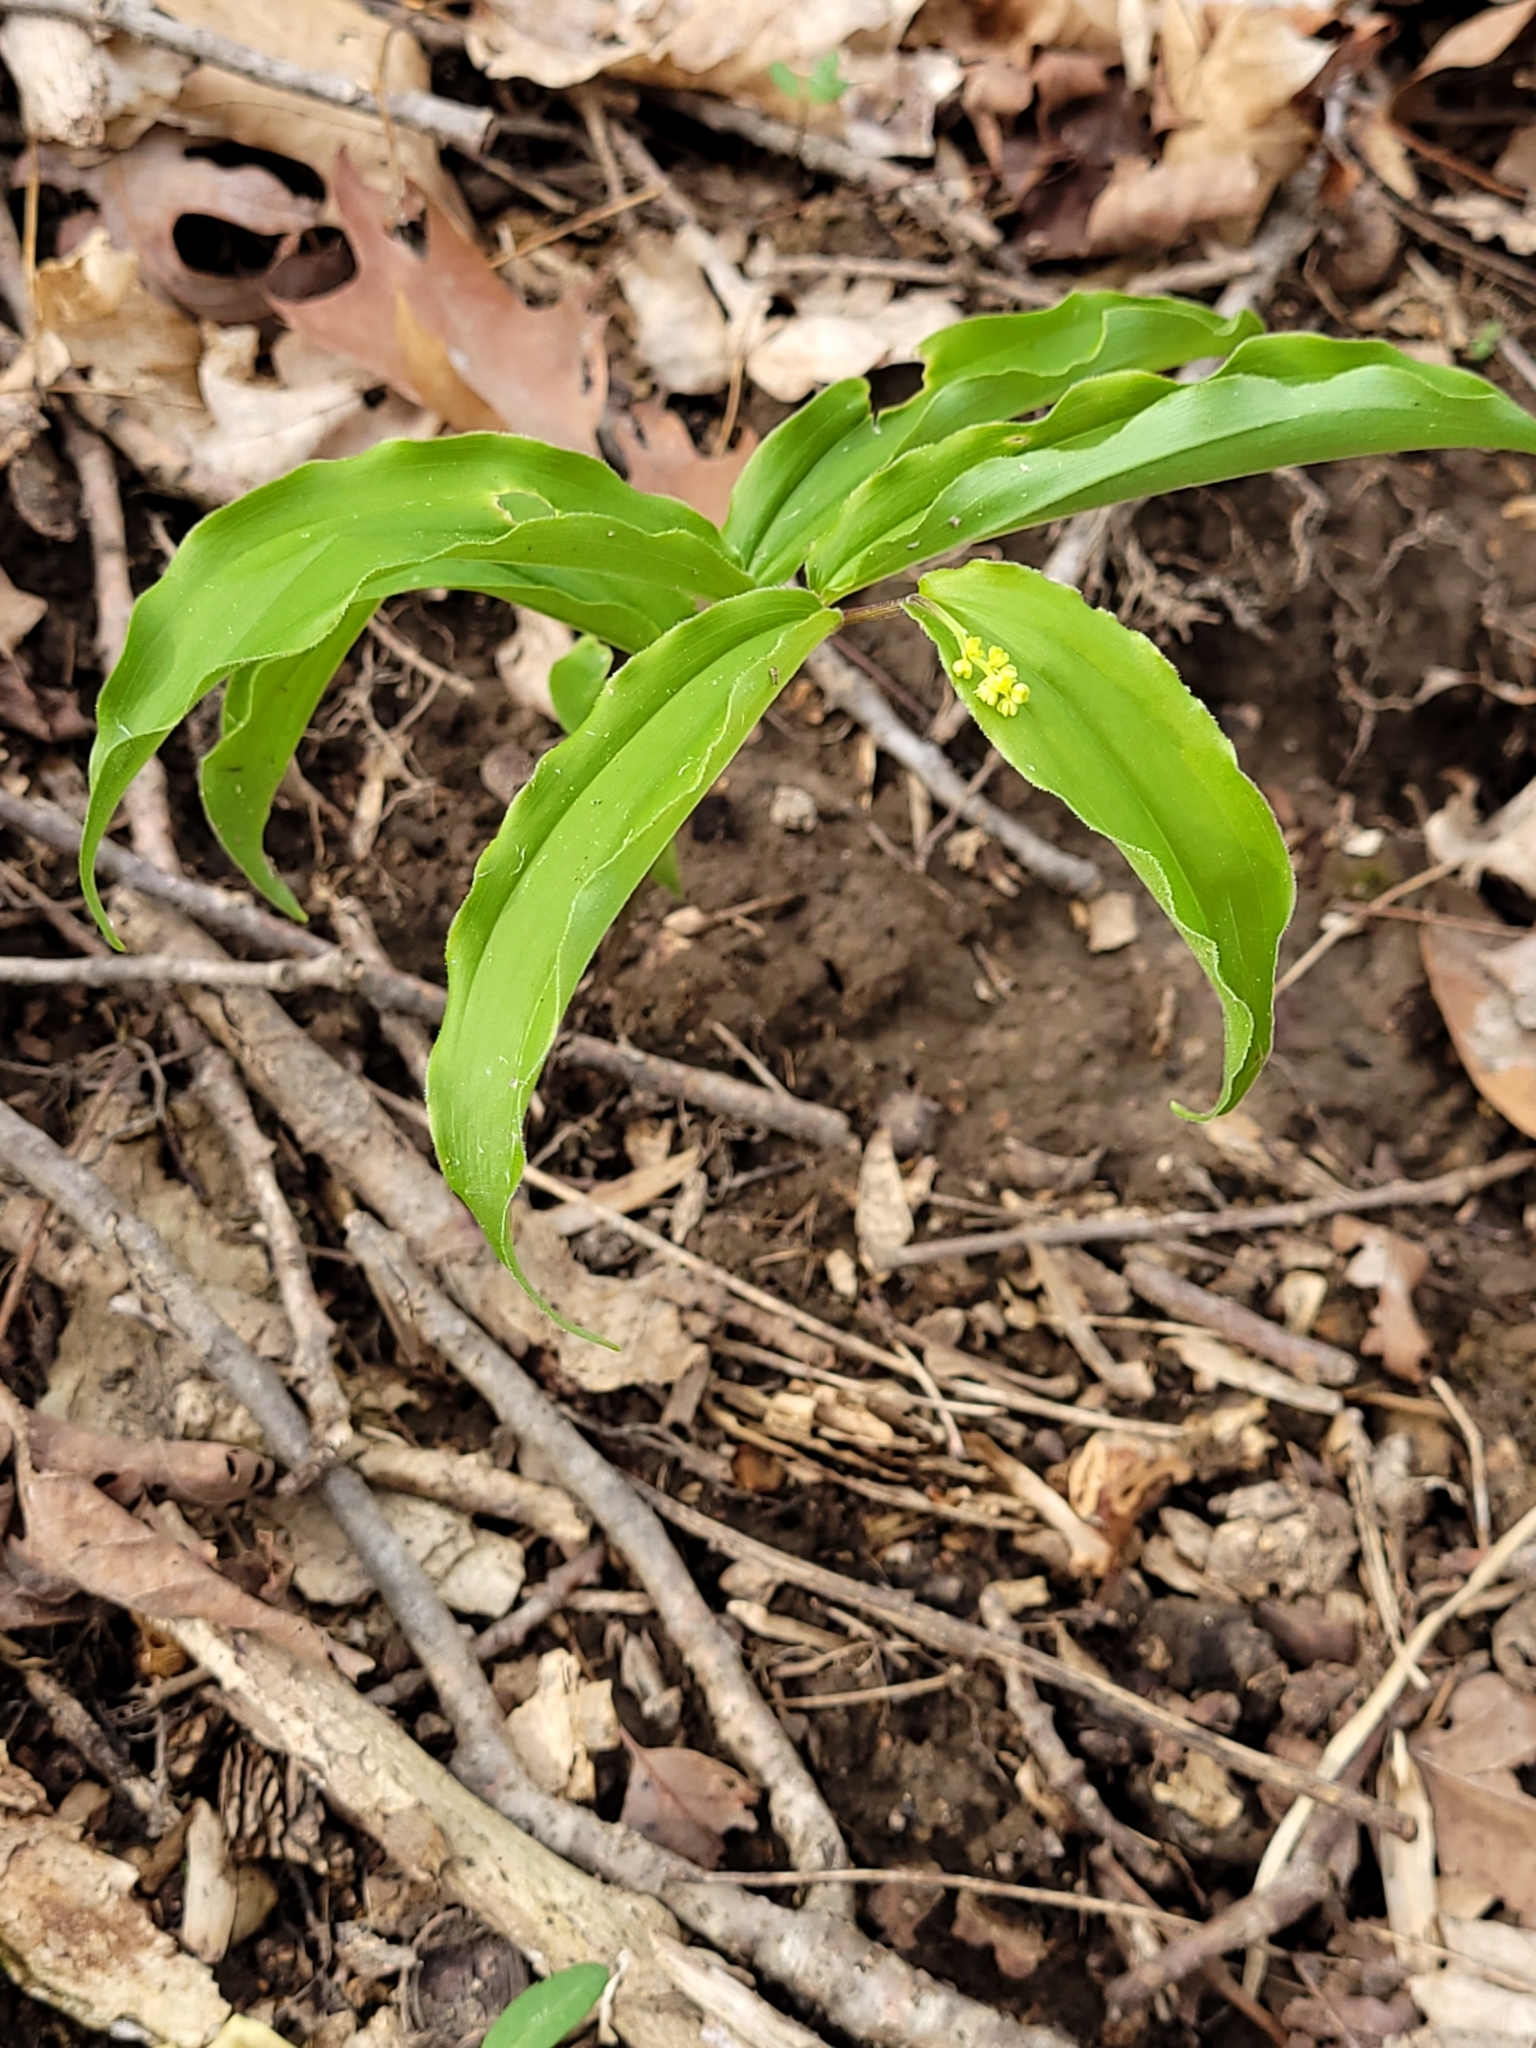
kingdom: Plantae
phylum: Tracheophyta
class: Liliopsida
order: Asparagales
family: Asparagaceae
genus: Maianthemum
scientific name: Maianthemum racemosum
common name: False spikenard
